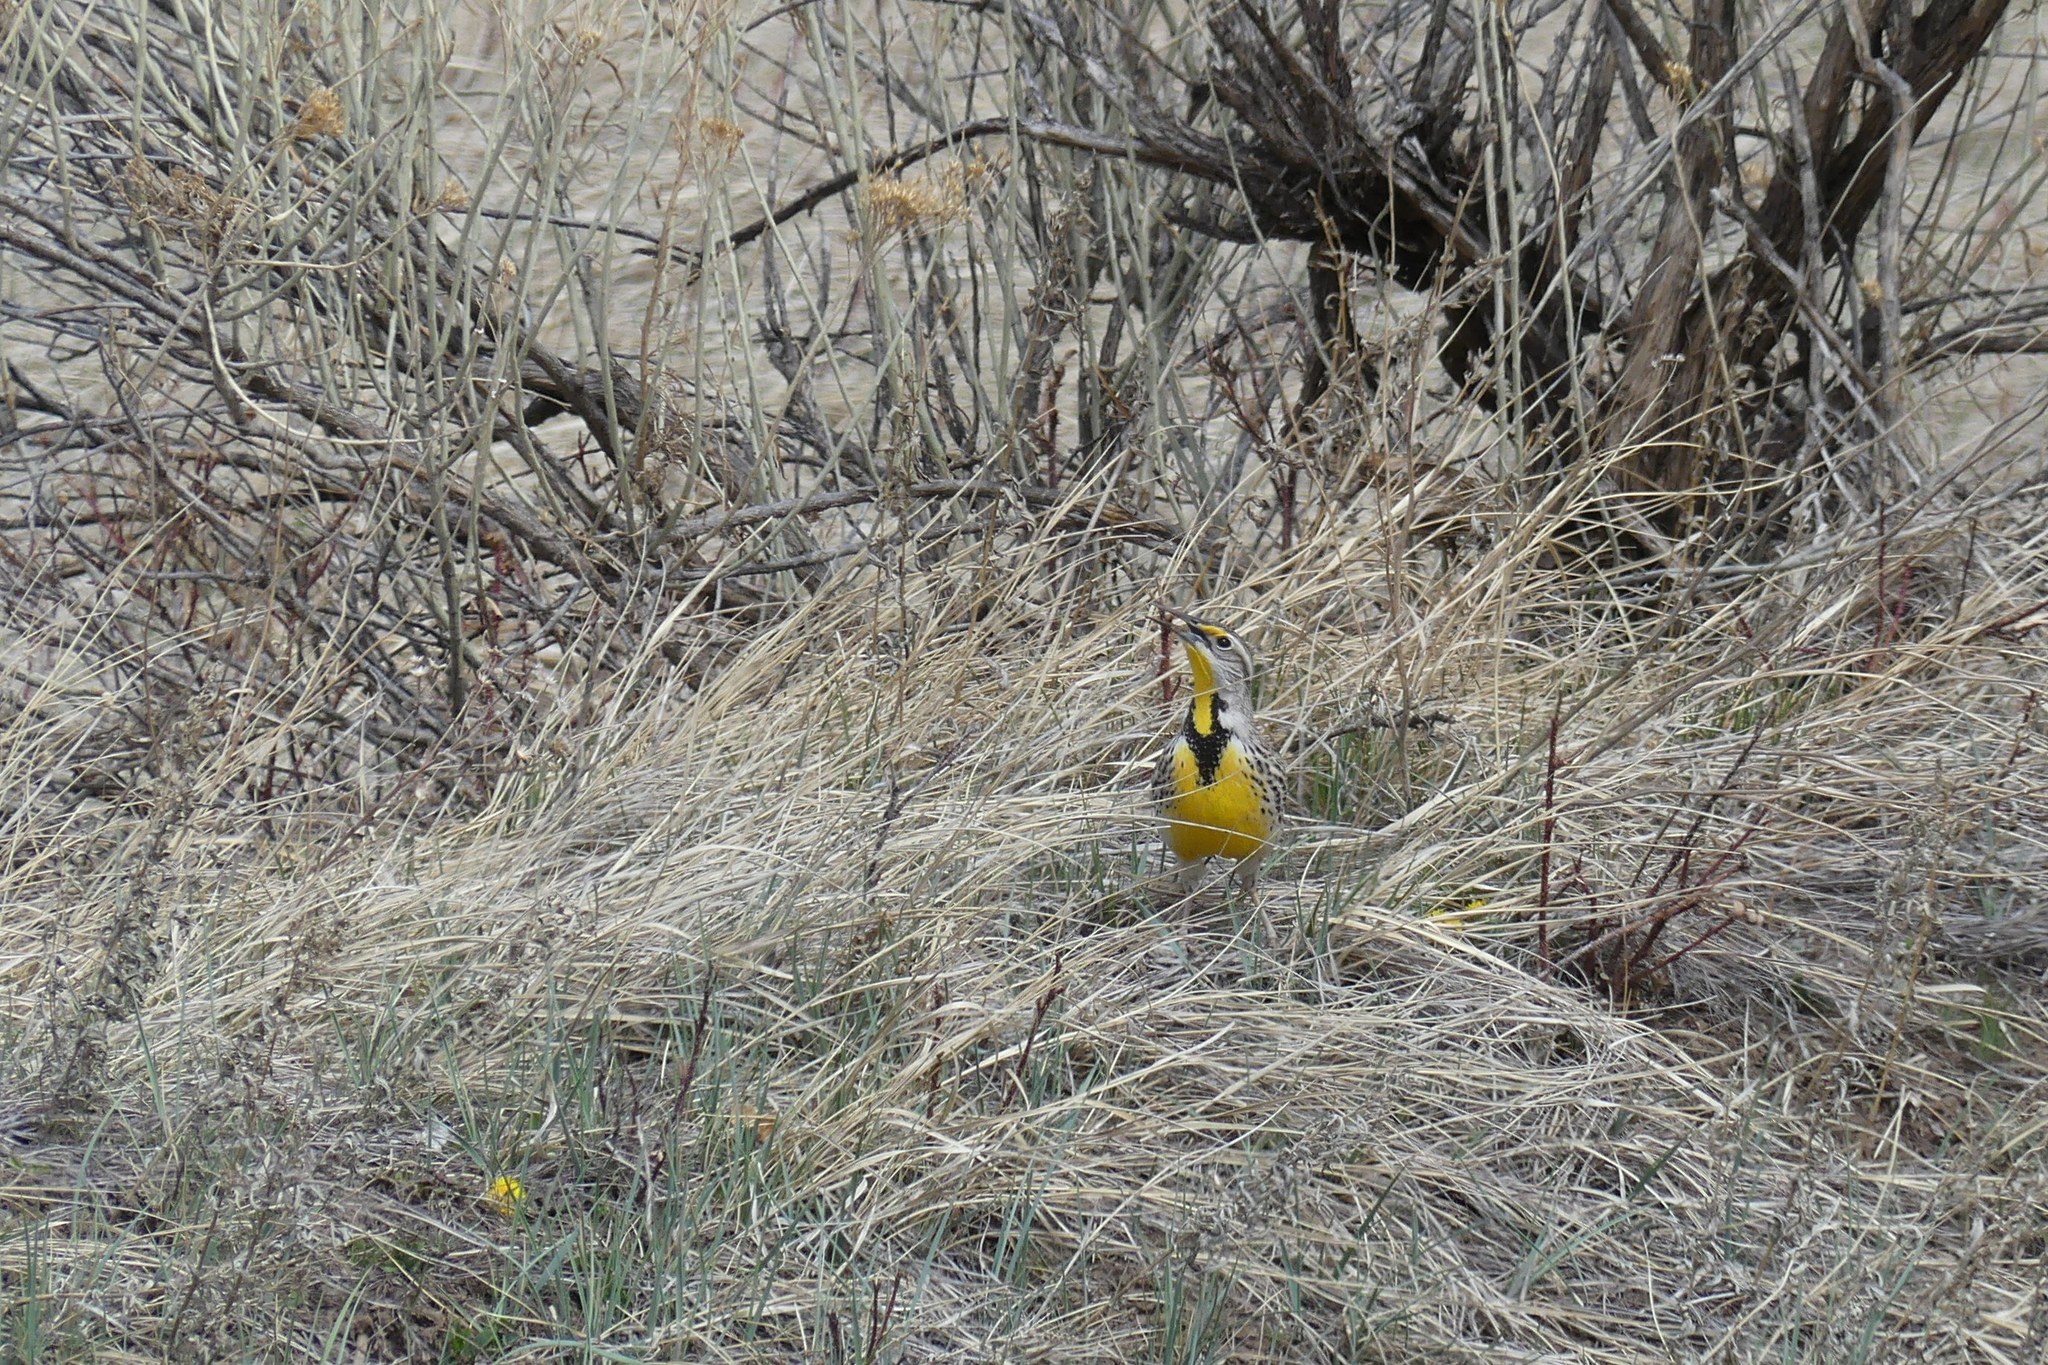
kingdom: Animalia
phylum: Chordata
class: Aves
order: Passeriformes
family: Icteridae
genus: Sturnella
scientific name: Sturnella neglecta
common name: Western meadowlark
